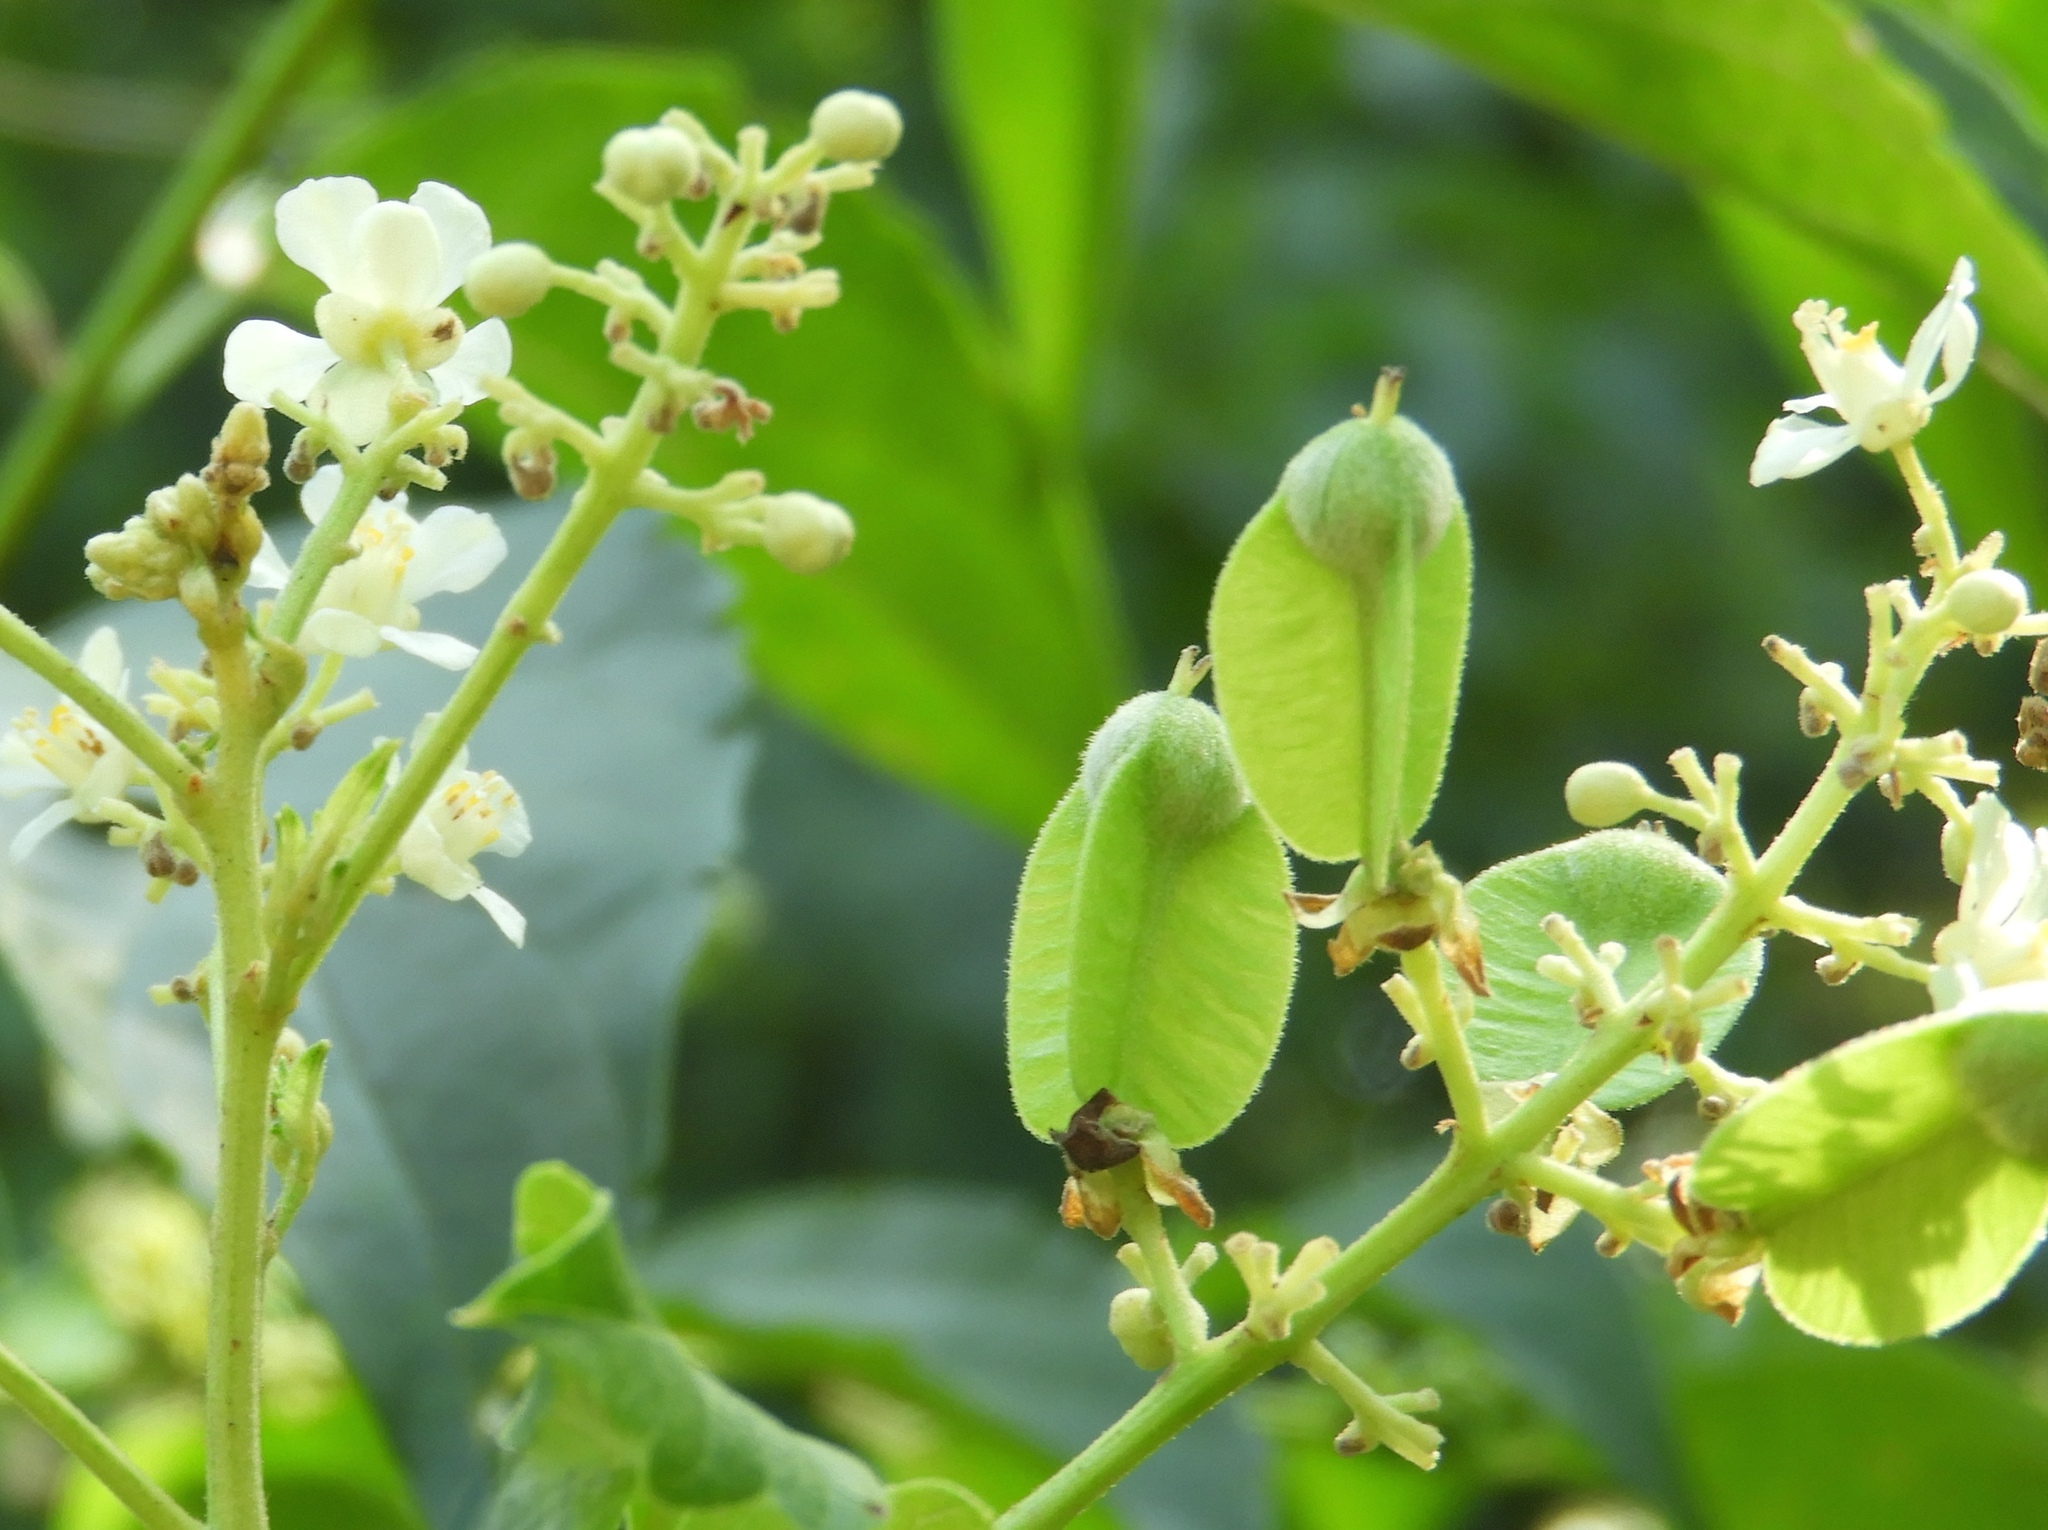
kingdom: Plantae
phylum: Tracheophyta
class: Magnoliopsida
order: Sapindales
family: Sapindaceae
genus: Serjania
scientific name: Serjania racemosa
